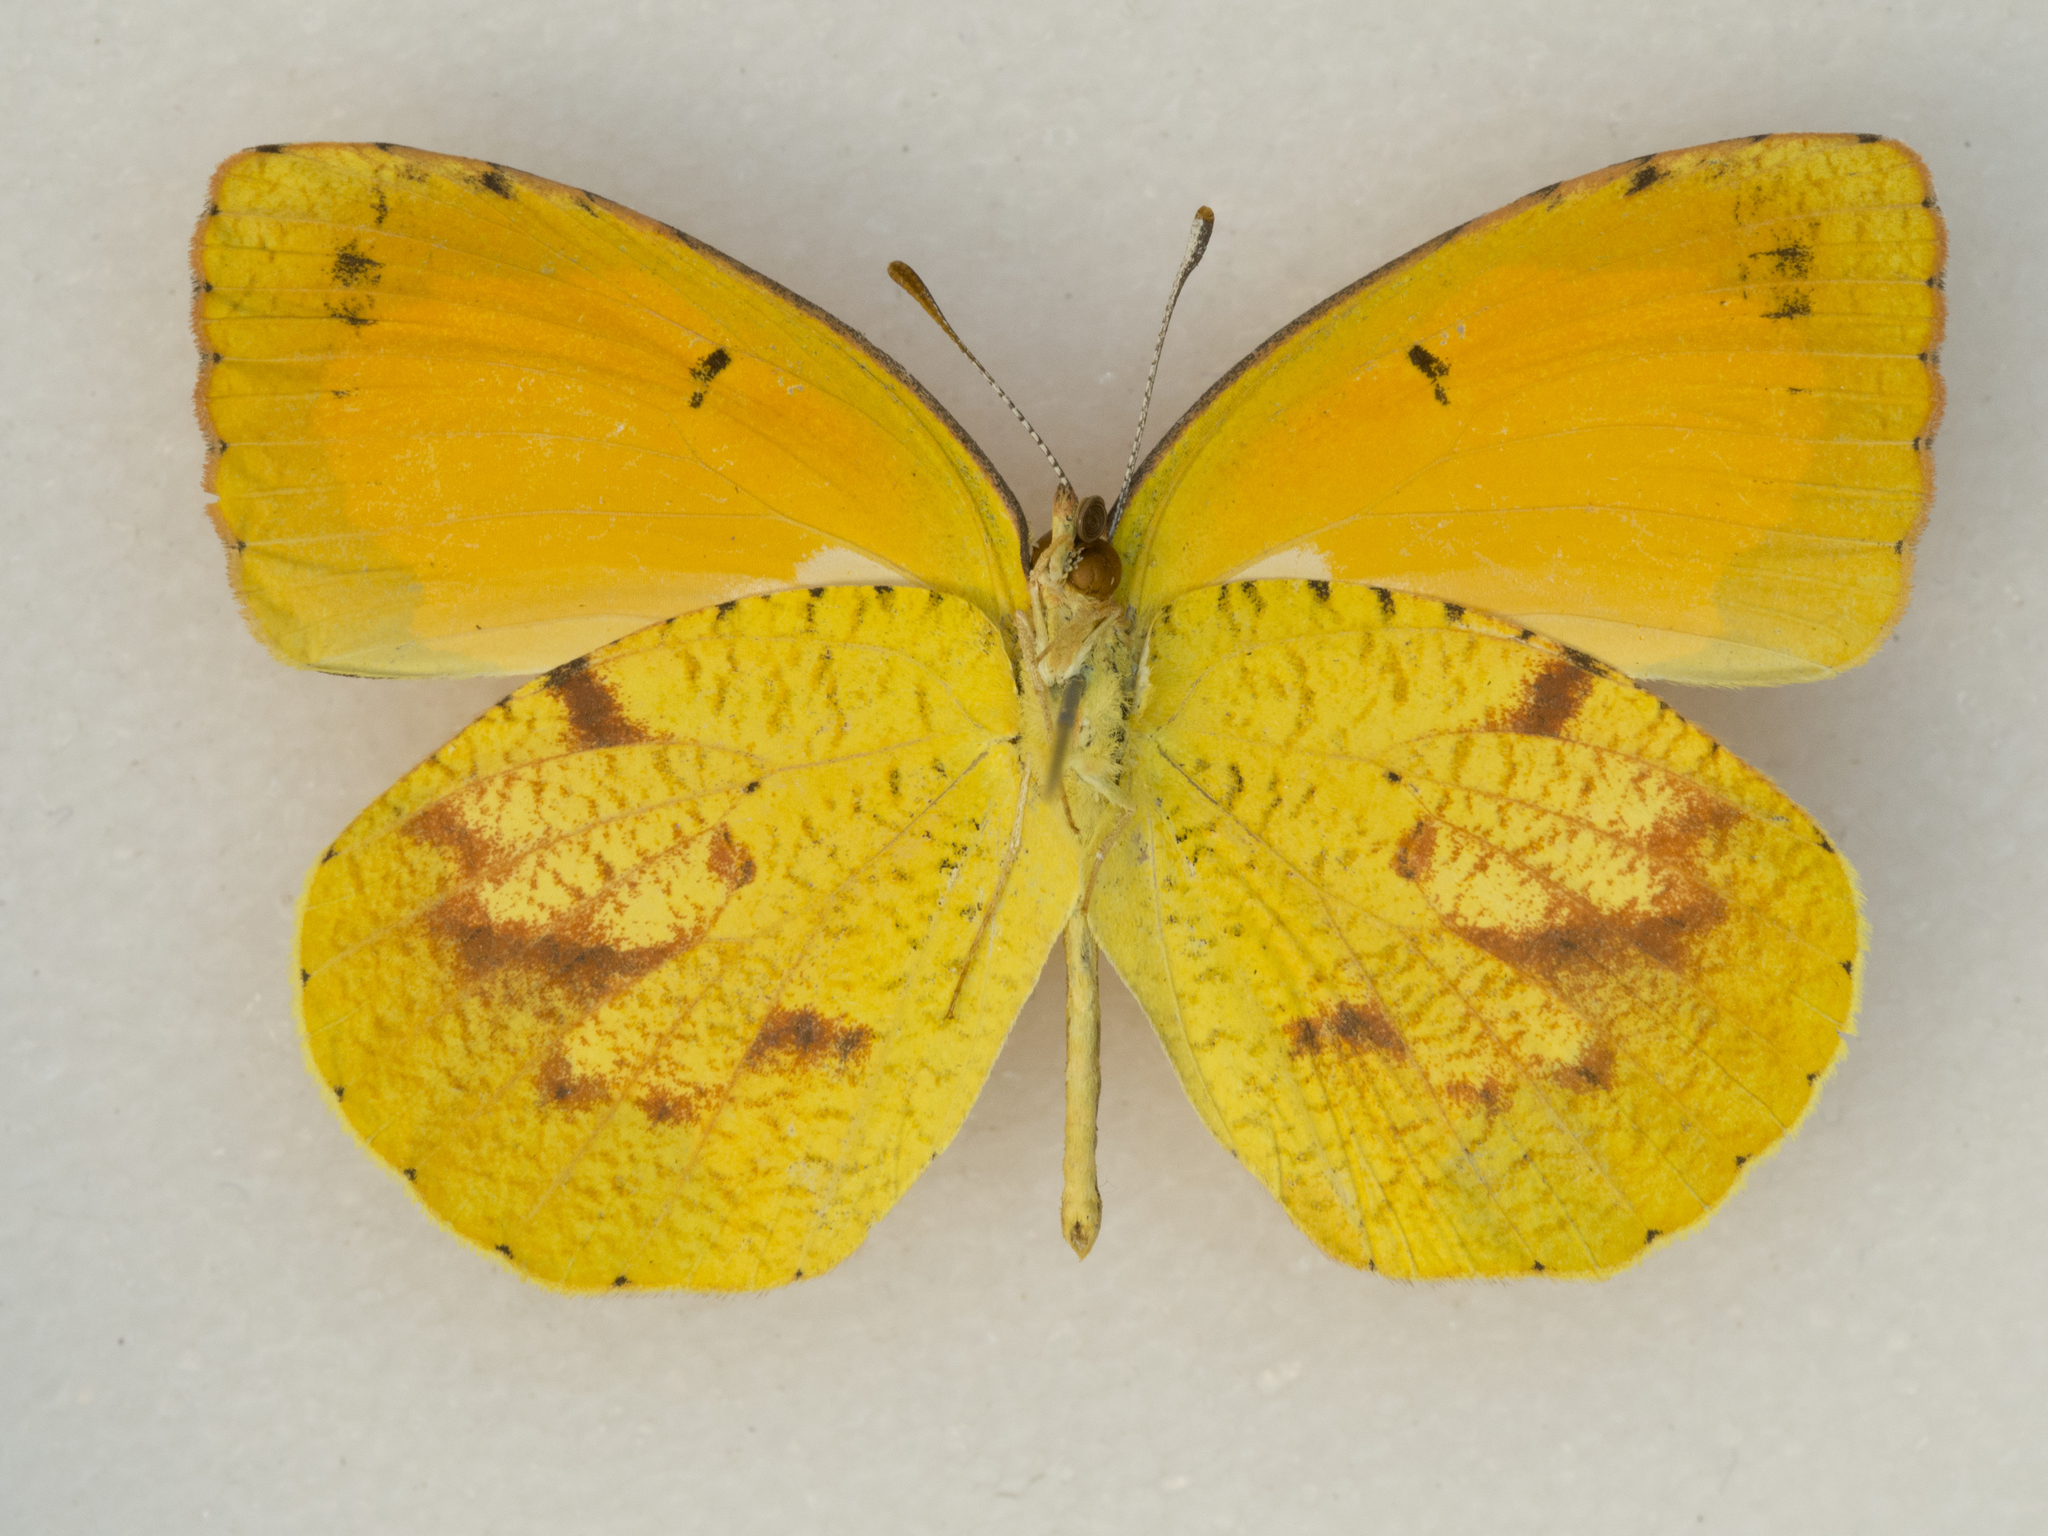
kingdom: Animalia
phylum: Arthropoda
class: Insecta
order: Lepidoptera
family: Pieridae
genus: Abaeis
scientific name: Abaeis nicippe
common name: Sleepy orange
